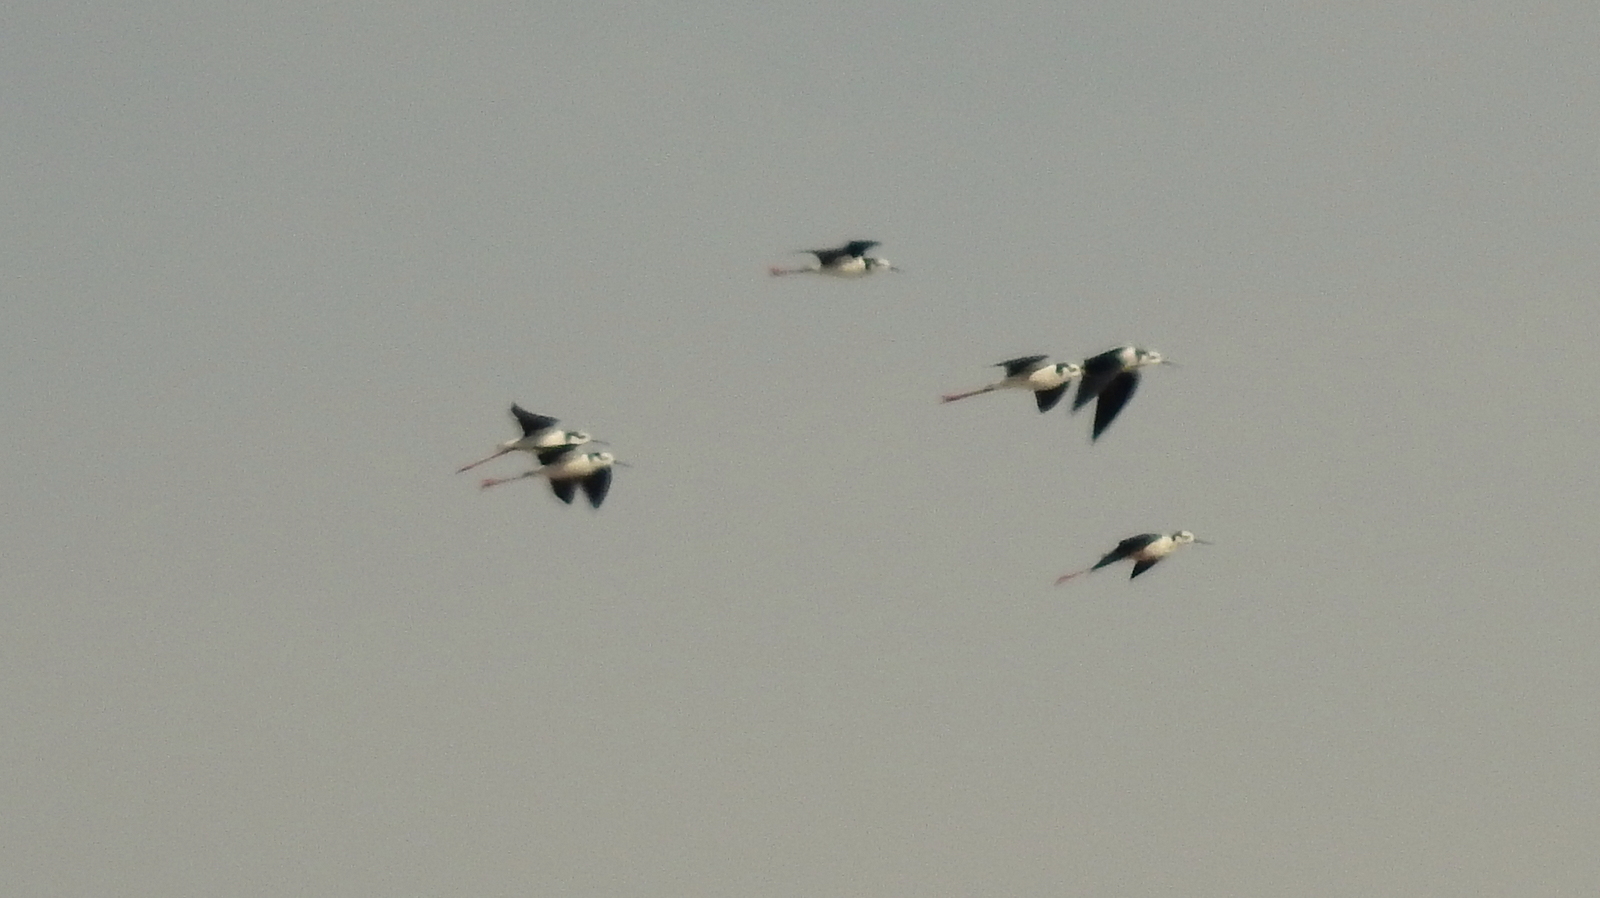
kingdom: Animalia
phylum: Chordata
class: Aves
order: Charadriiformes
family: Recurvirostridae
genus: Himantopus
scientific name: Himantopus mexicanus
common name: Black-necked stilt
